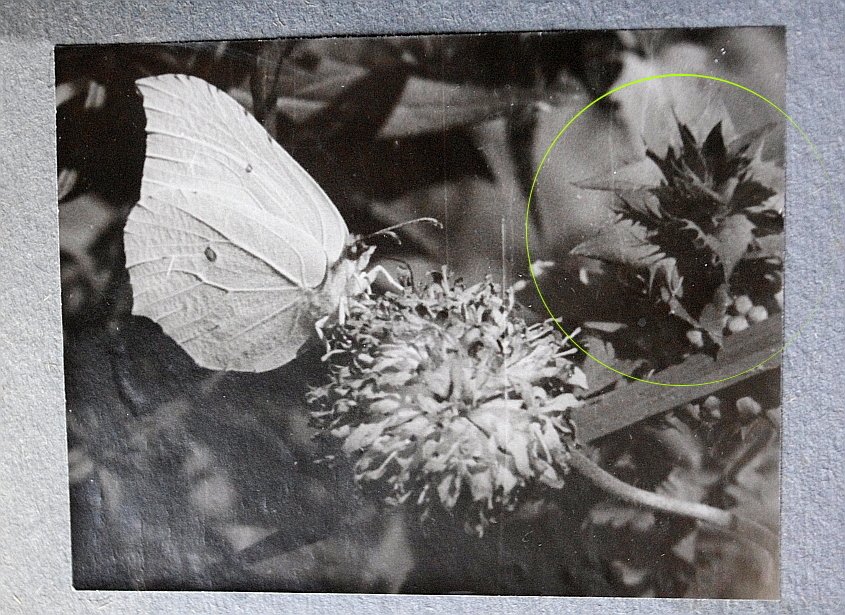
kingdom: Plantae
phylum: Tracheophyta
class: Magnoliopsida
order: Lamiales
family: Orobanchaceae
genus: Melampyrum
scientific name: Melampyrum nemorosum
